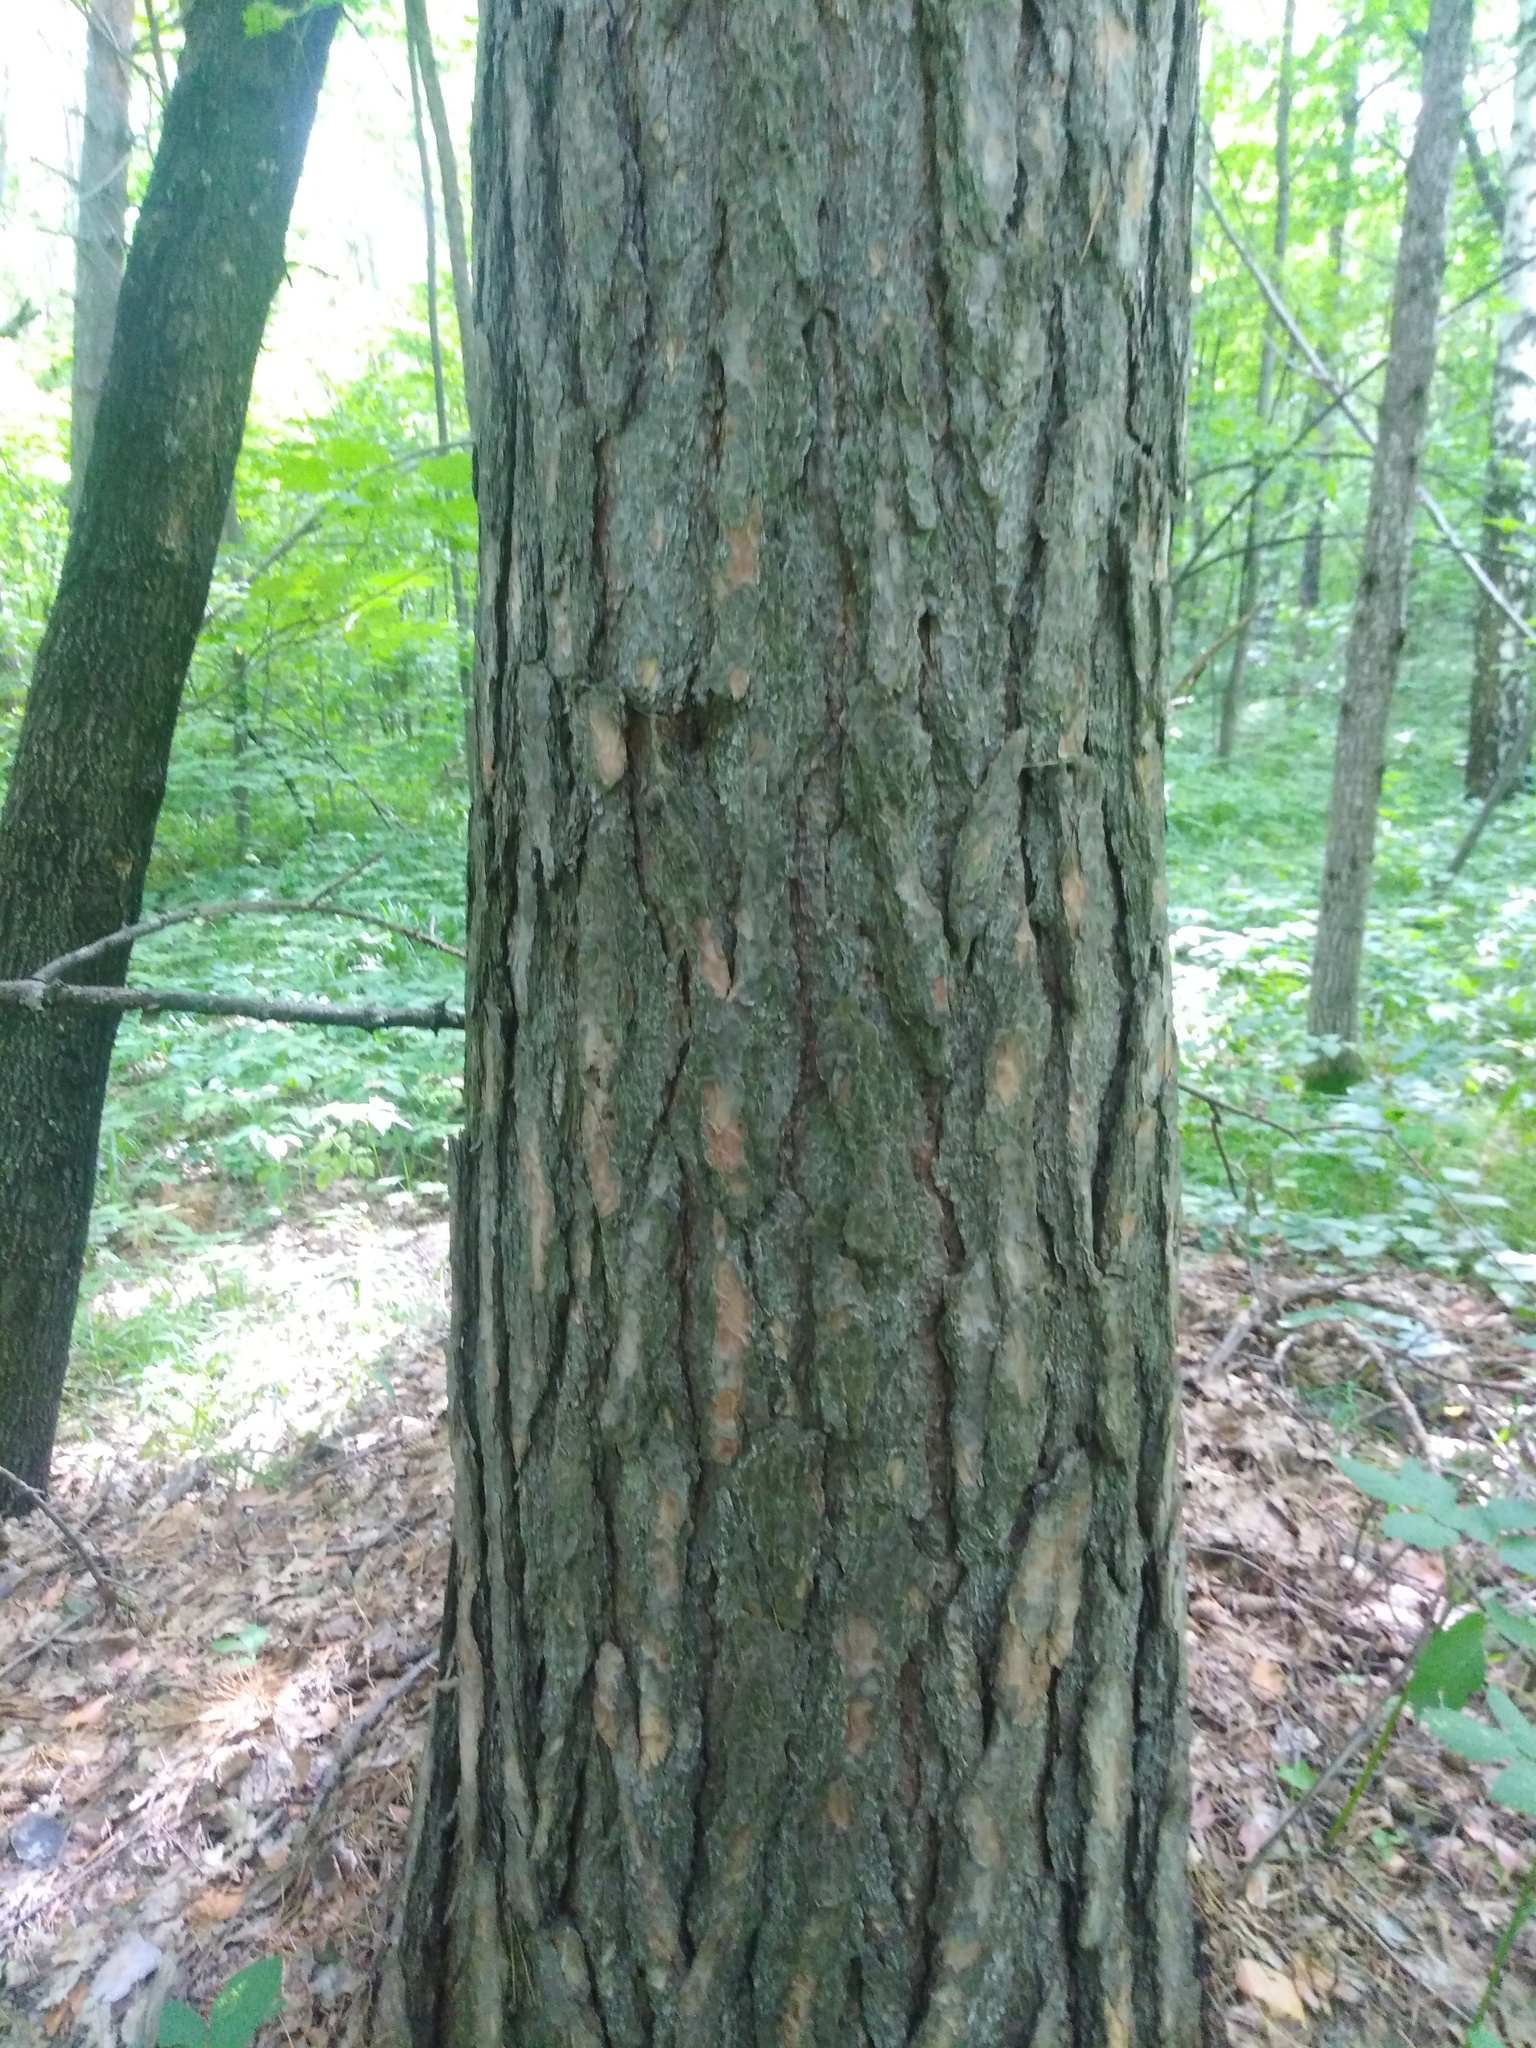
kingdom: Plantae
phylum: Tracheophyta
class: Pinopsida
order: Pinales
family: Pinaceae
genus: Pinus
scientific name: Pinus sylvestris
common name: Scots pine
